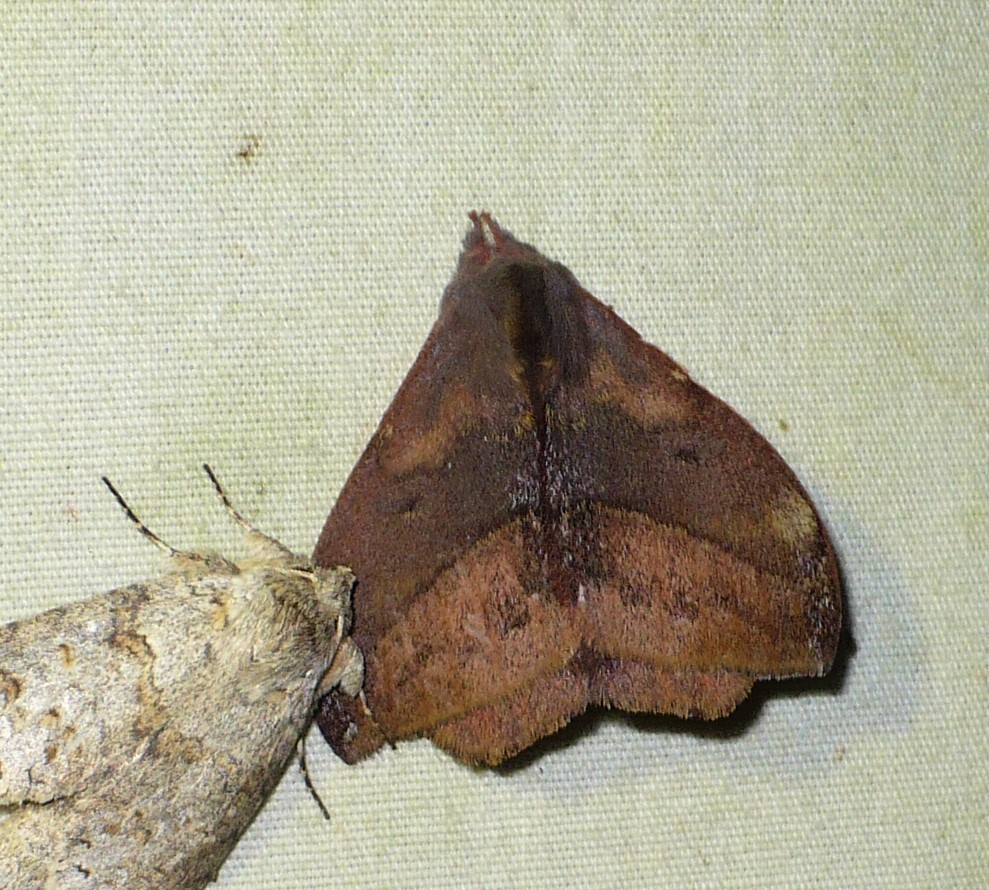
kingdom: Animalia
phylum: Arthropoda
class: Insecta
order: Lepidoptera
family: Saturniidae
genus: Hylesia
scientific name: Hylesia aeneides
